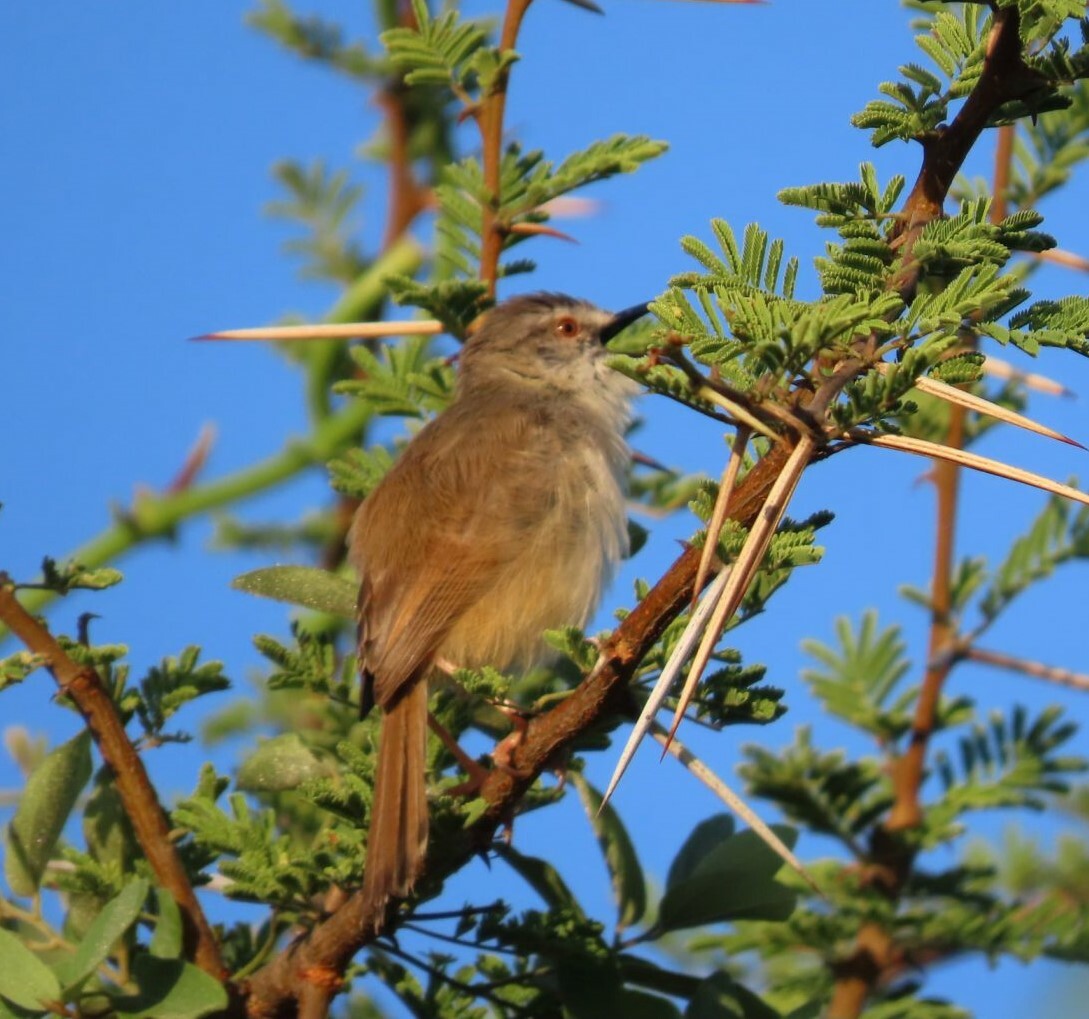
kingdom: Animalia
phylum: Chordata
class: Aves
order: Passeriformes
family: Cisticolidae
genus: Prinia
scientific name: Prinia subflava
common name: Tawny-flanked prinia
